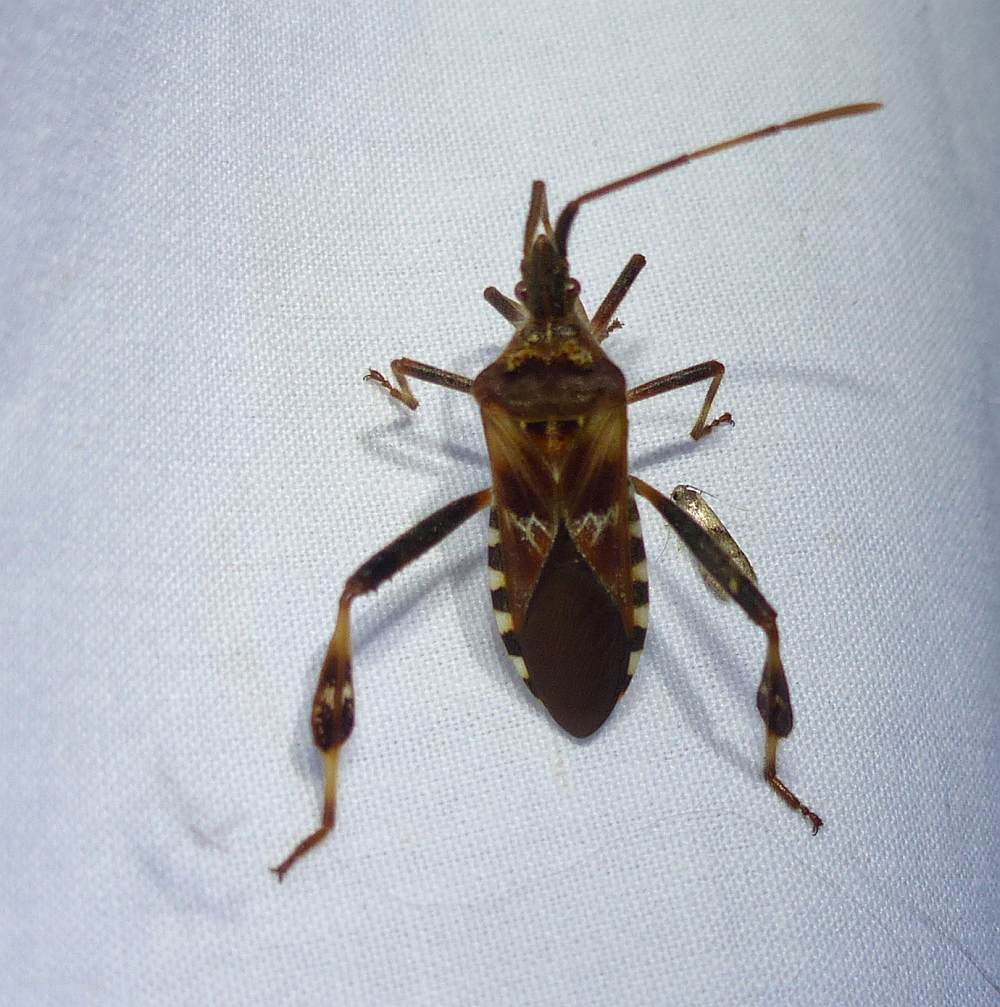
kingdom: Animalia
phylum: Arthropoda
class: Insecta
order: Hemiptera
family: Coreidae
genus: Leptoglossus
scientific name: Leptoglossus occidentalis
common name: Western conifer-seed bug
